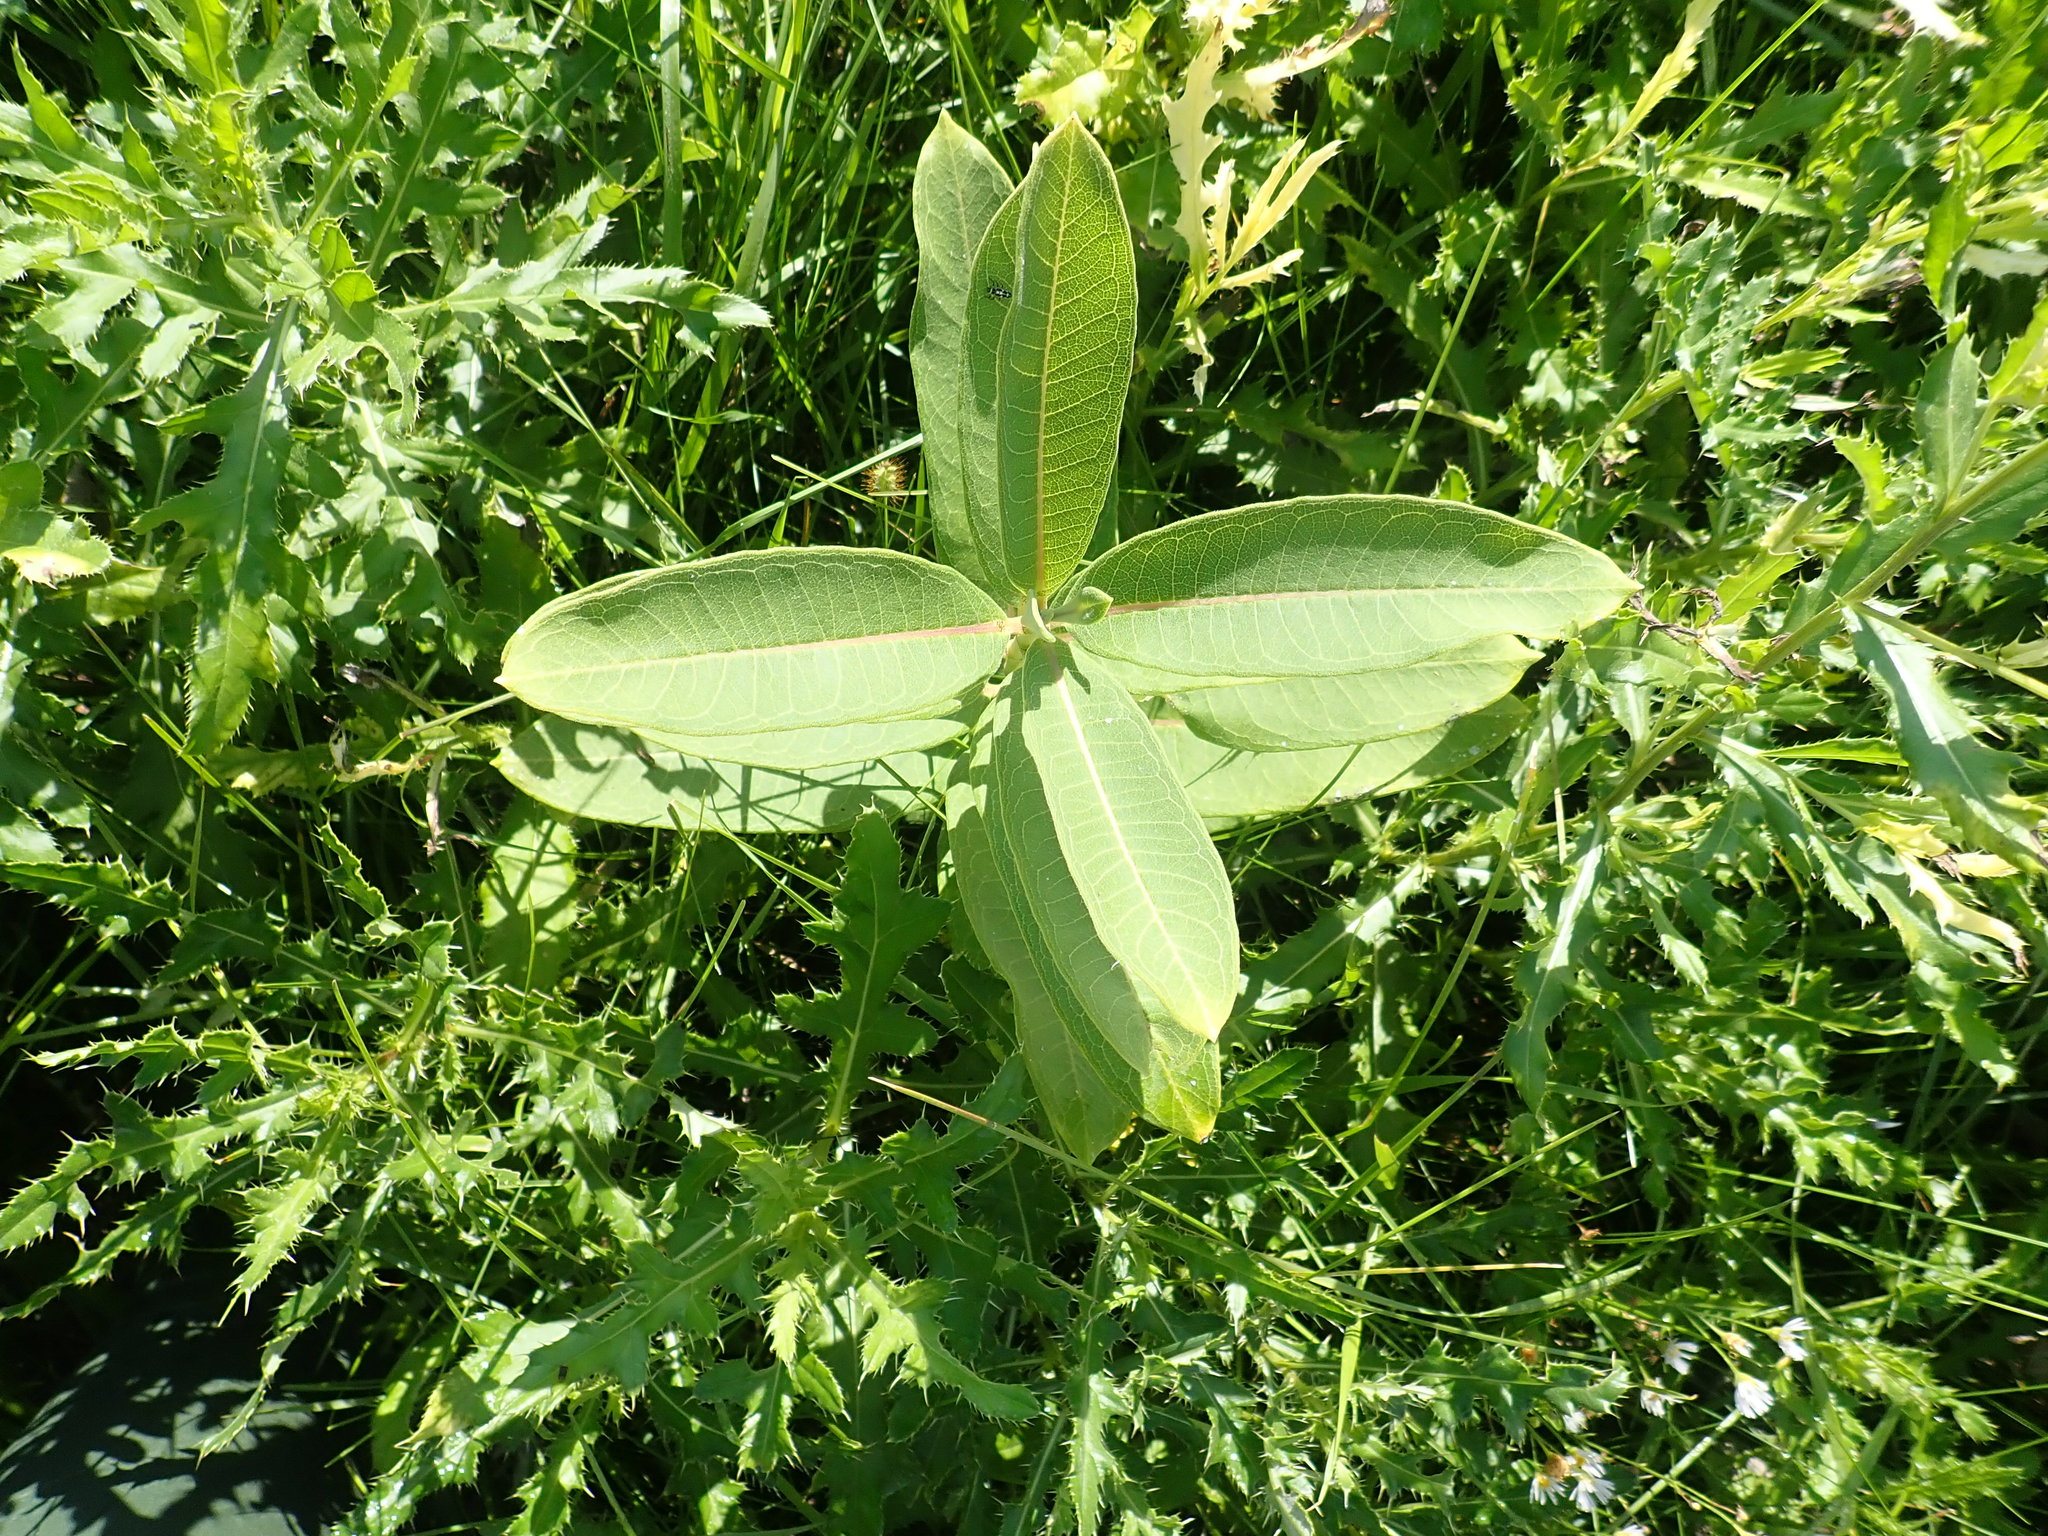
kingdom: Plantae
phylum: Tracheophyta
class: Magnoliopsida
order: Gentianales
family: Apocynaceae
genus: Asclepias
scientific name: Asclepias syriaca
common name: Common milkweed
